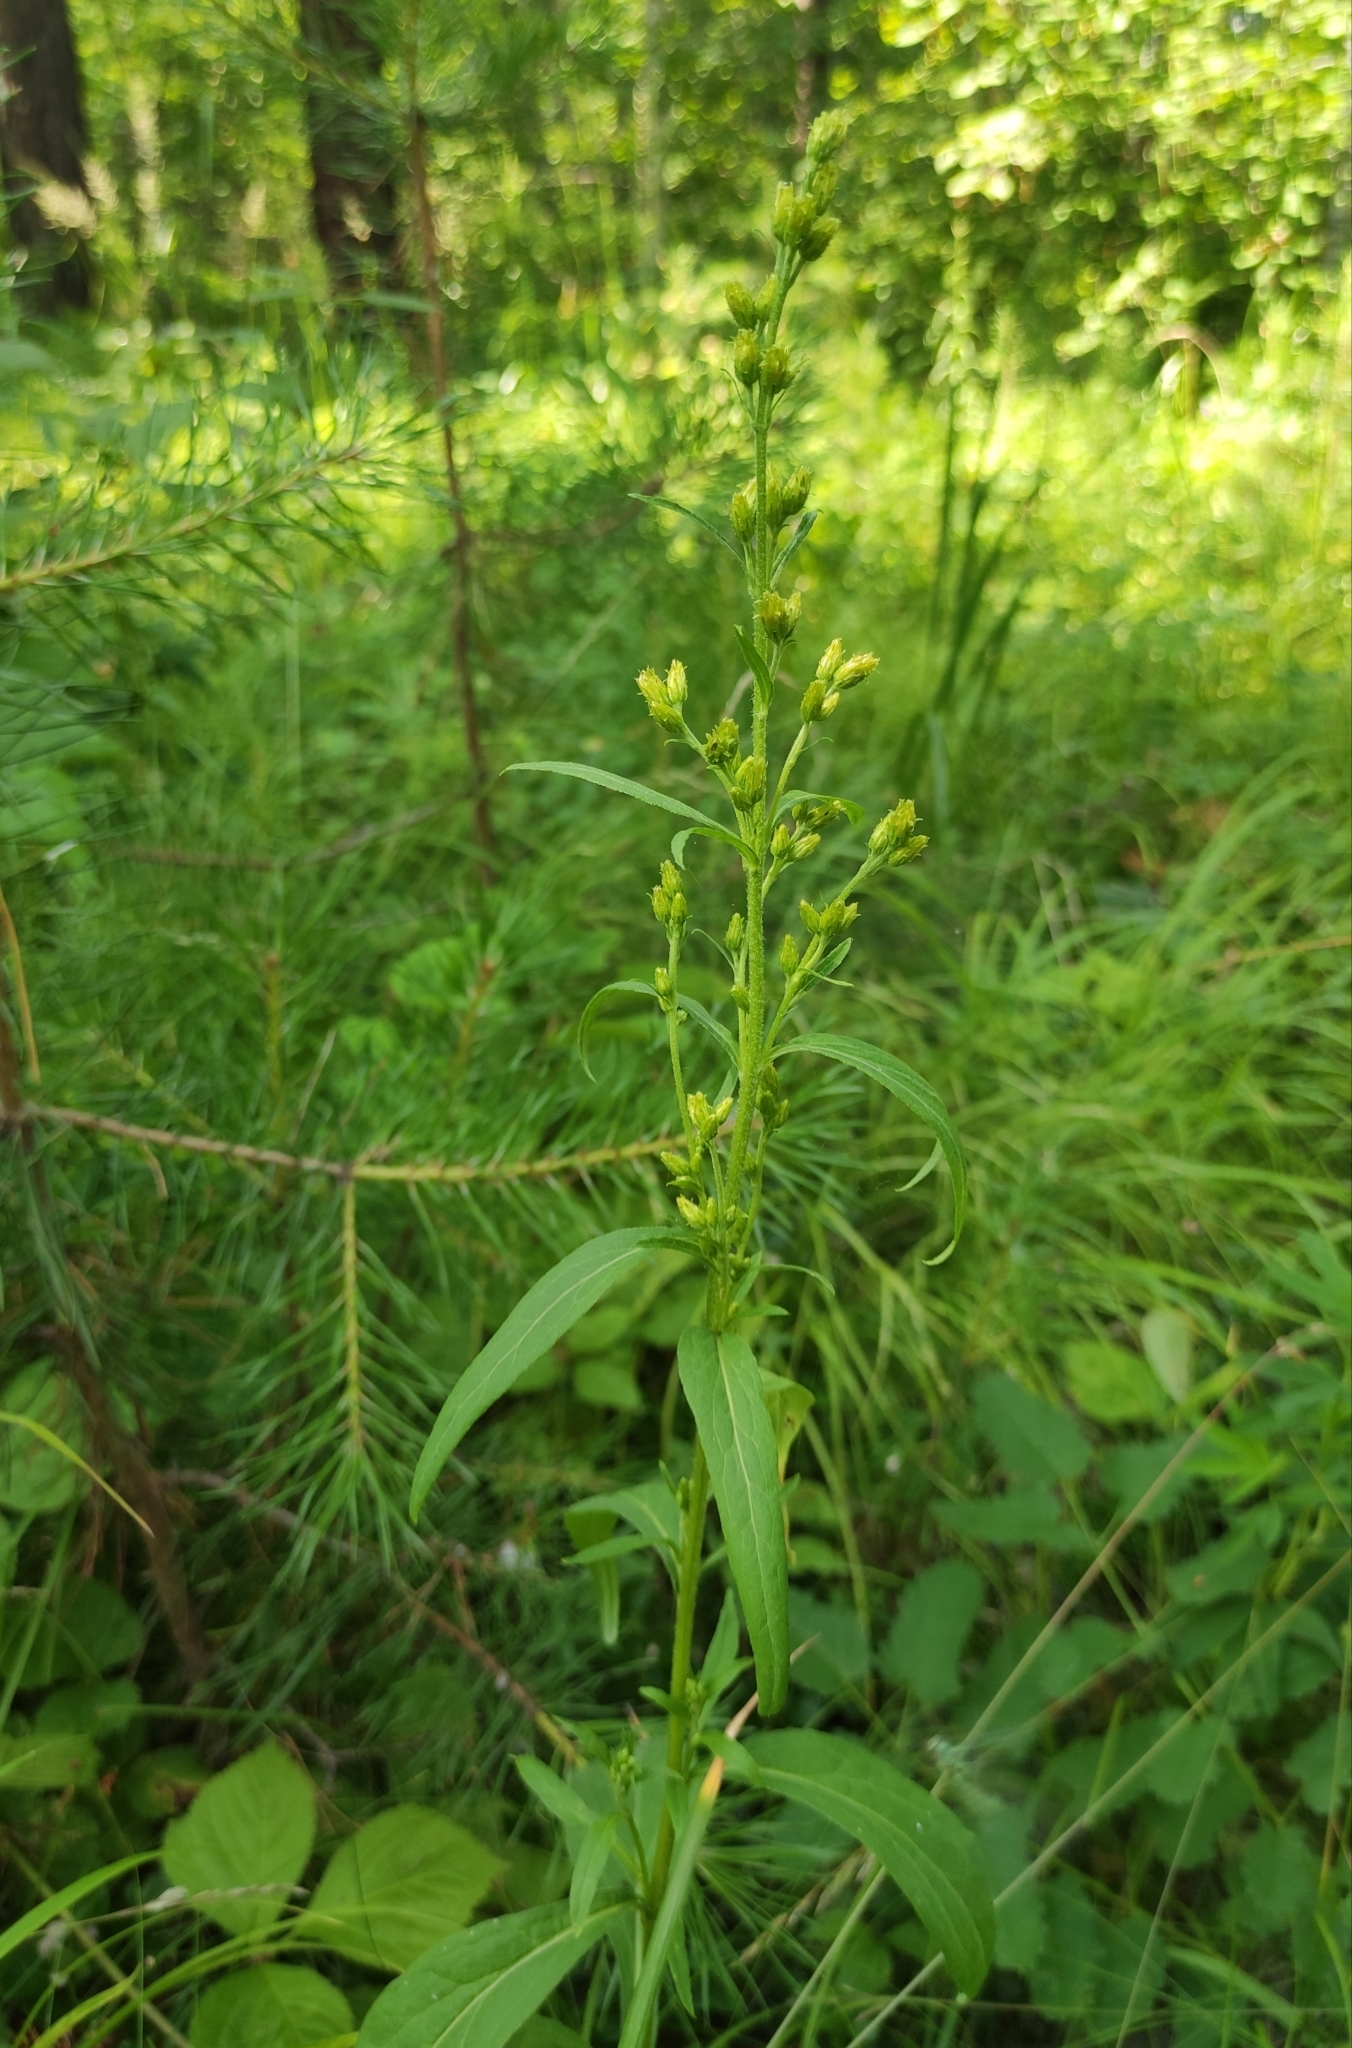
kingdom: Plantae
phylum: Tracheophyta
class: Magnoliopsida
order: Asterales
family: Asteraceae
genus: Solidago
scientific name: Solidago dahurica
